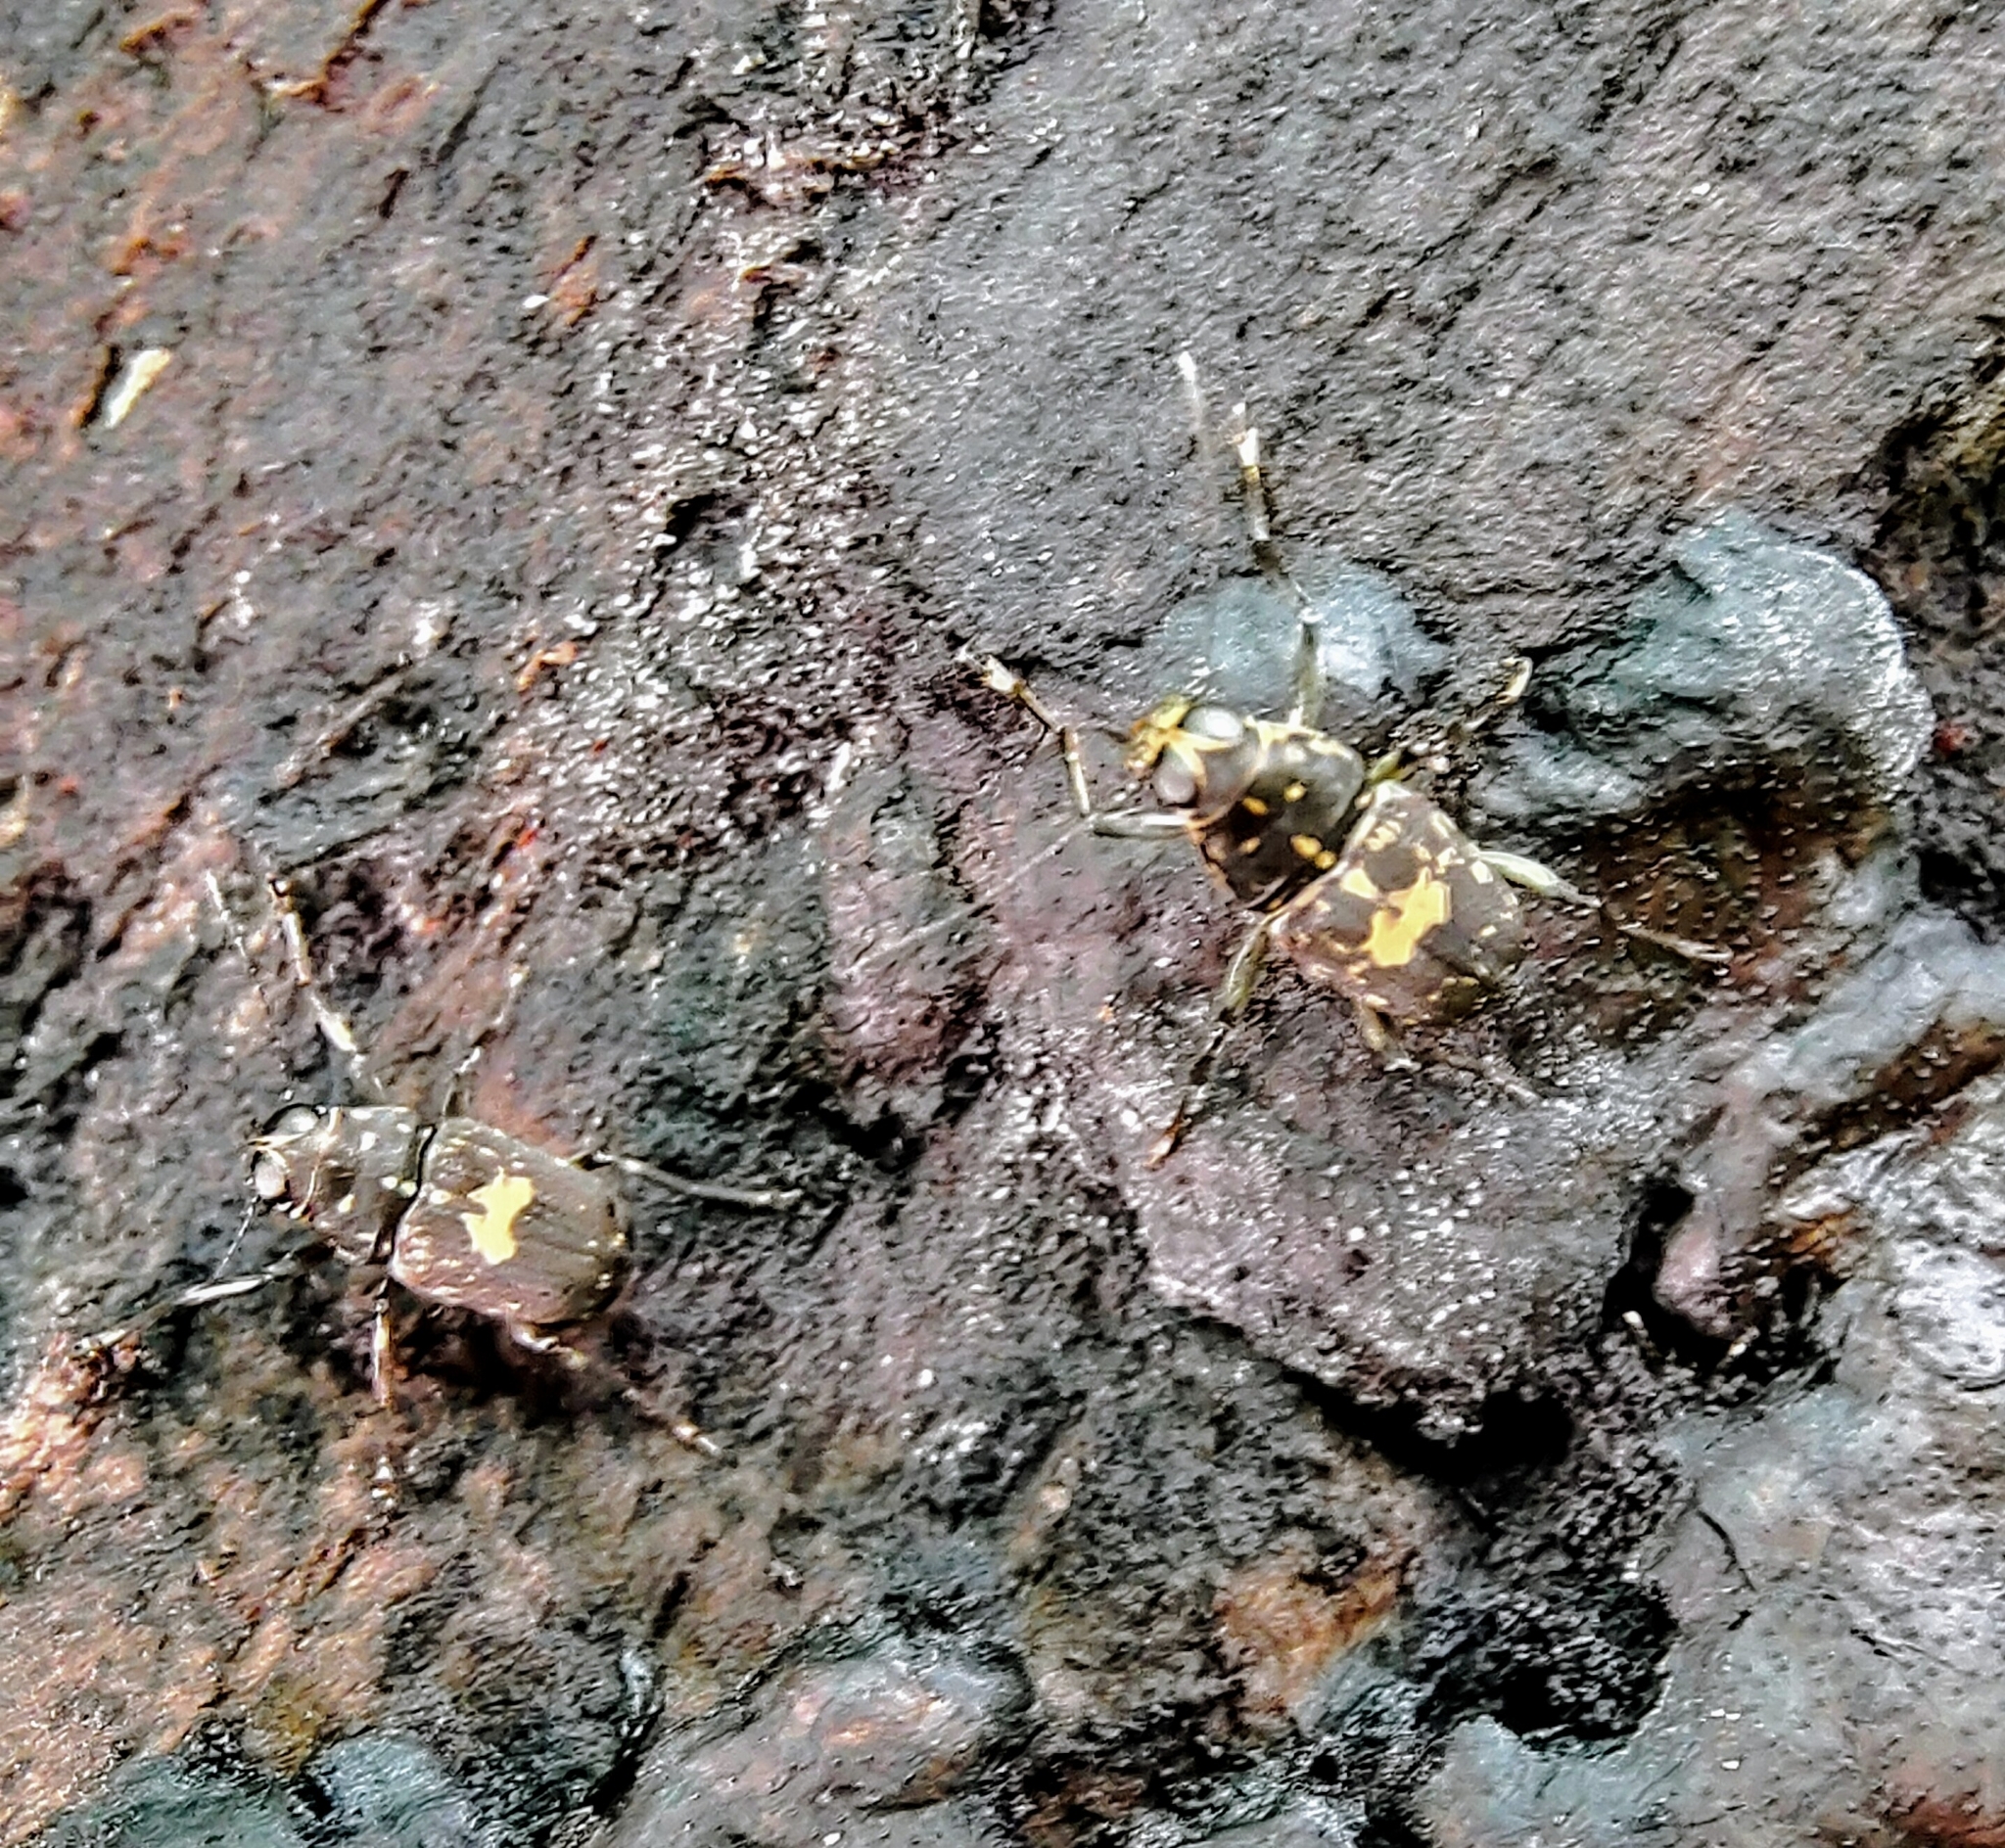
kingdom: Animalia
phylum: Arthropoda
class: Insecta
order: Coleoptera
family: Anthribidae
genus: Litocerus
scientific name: Litocerus sellatus
